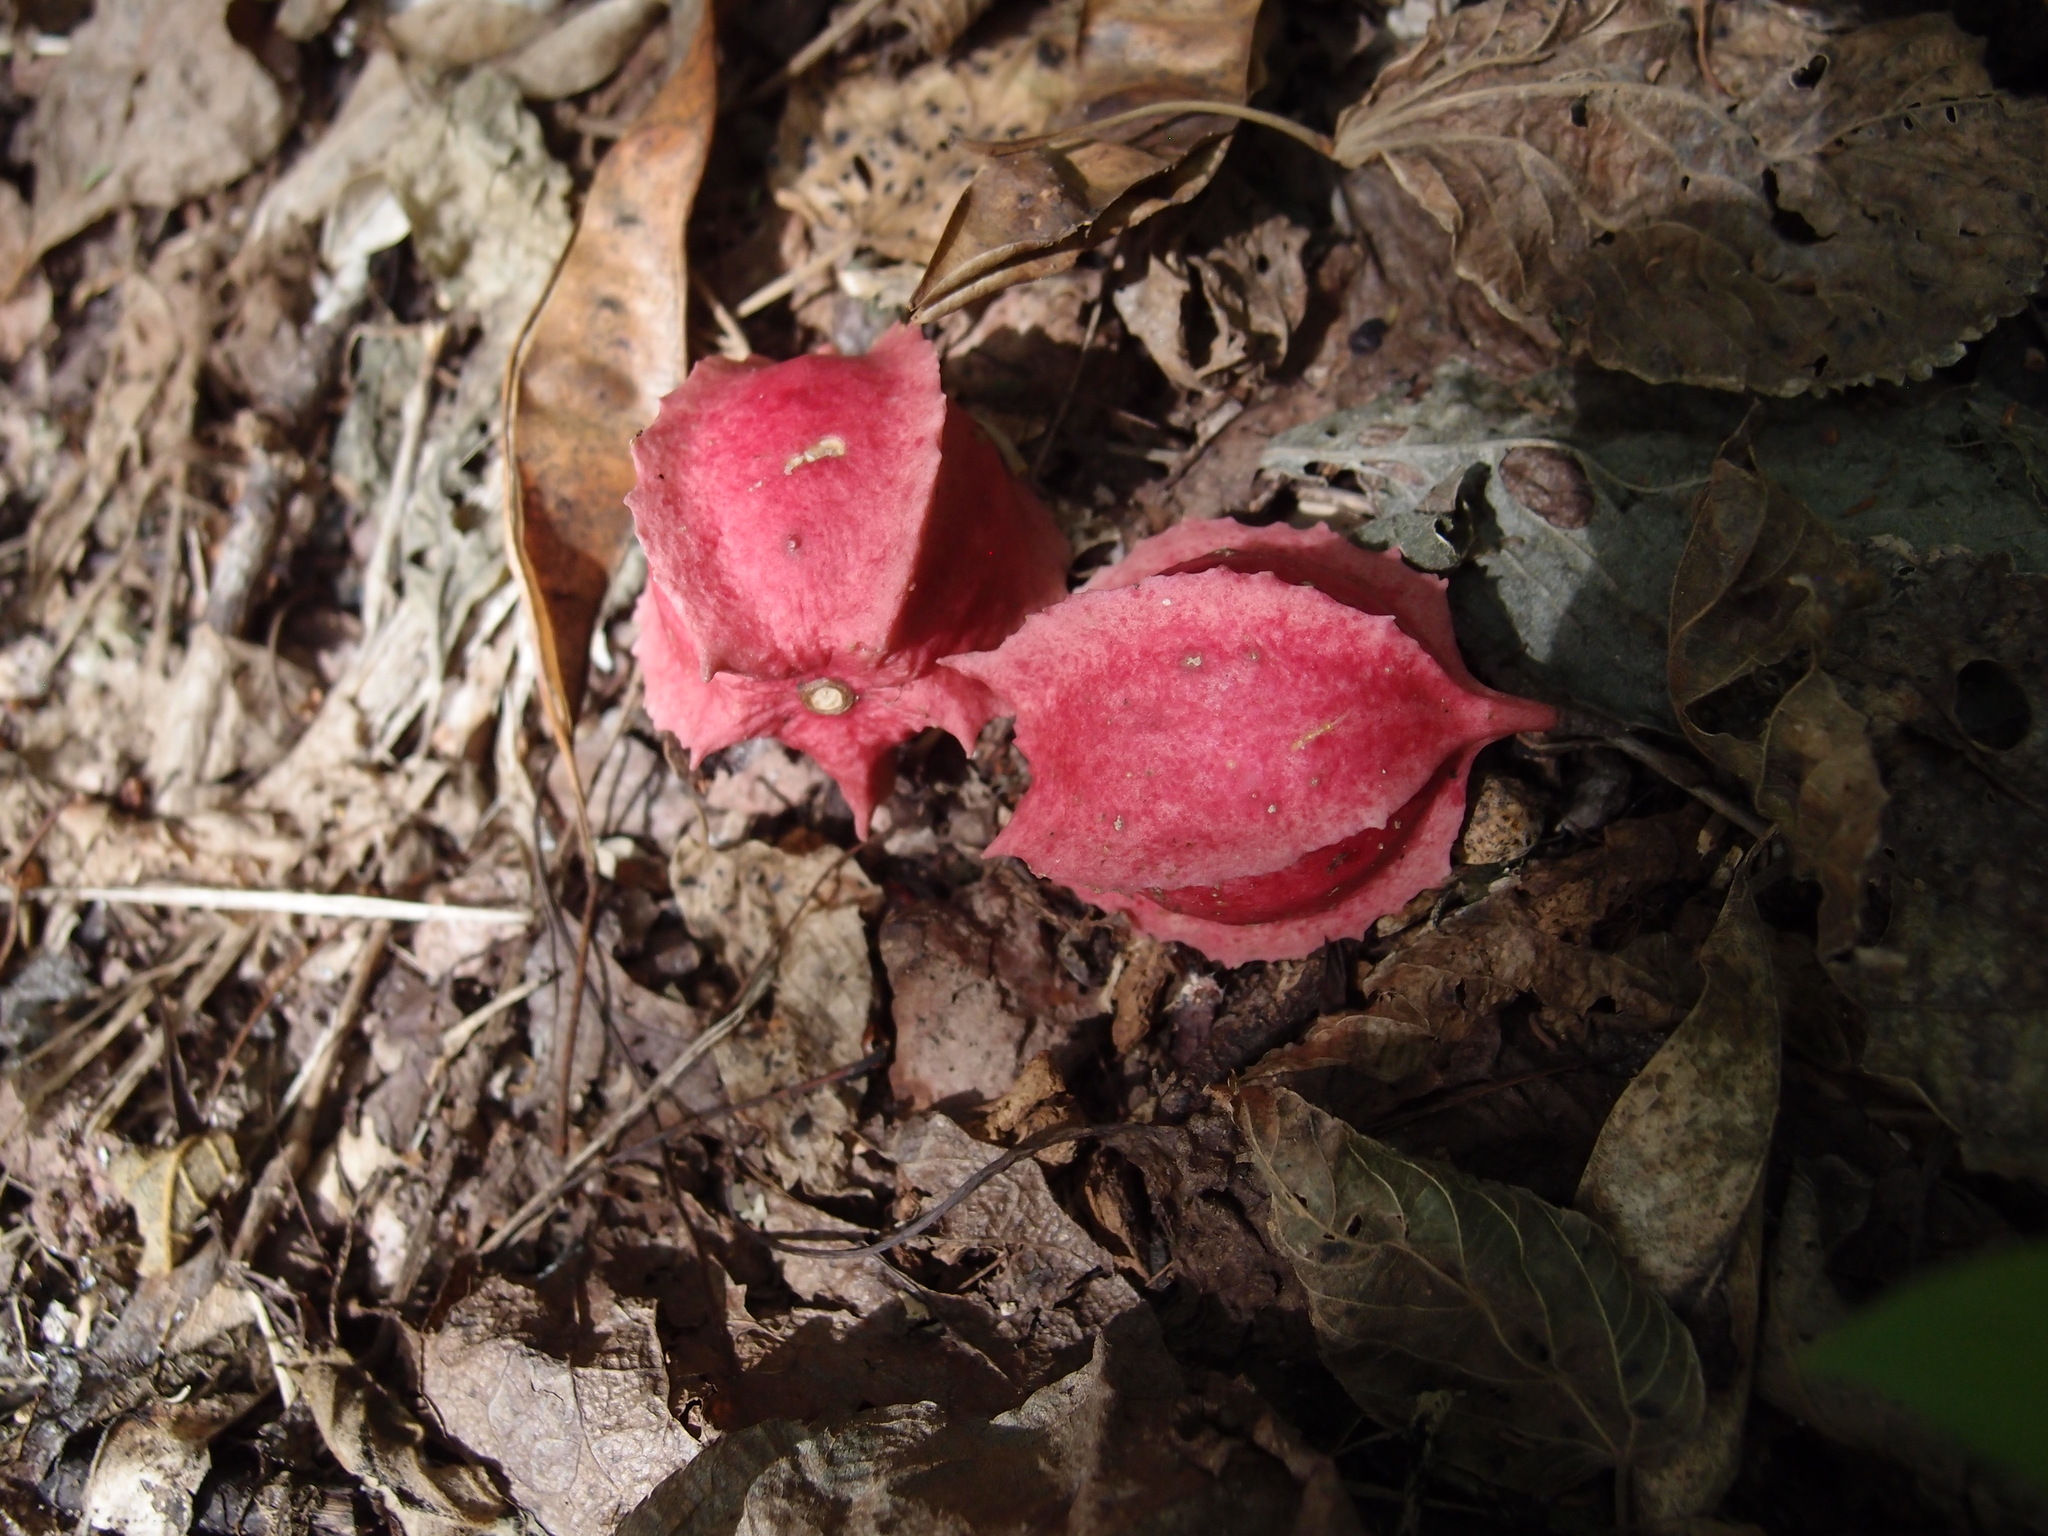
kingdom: Plantae
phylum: Tracheophyta
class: Magnoliopsida
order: Brassicales
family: Caricaceae
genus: Jarilla
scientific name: Jarilla chocola
